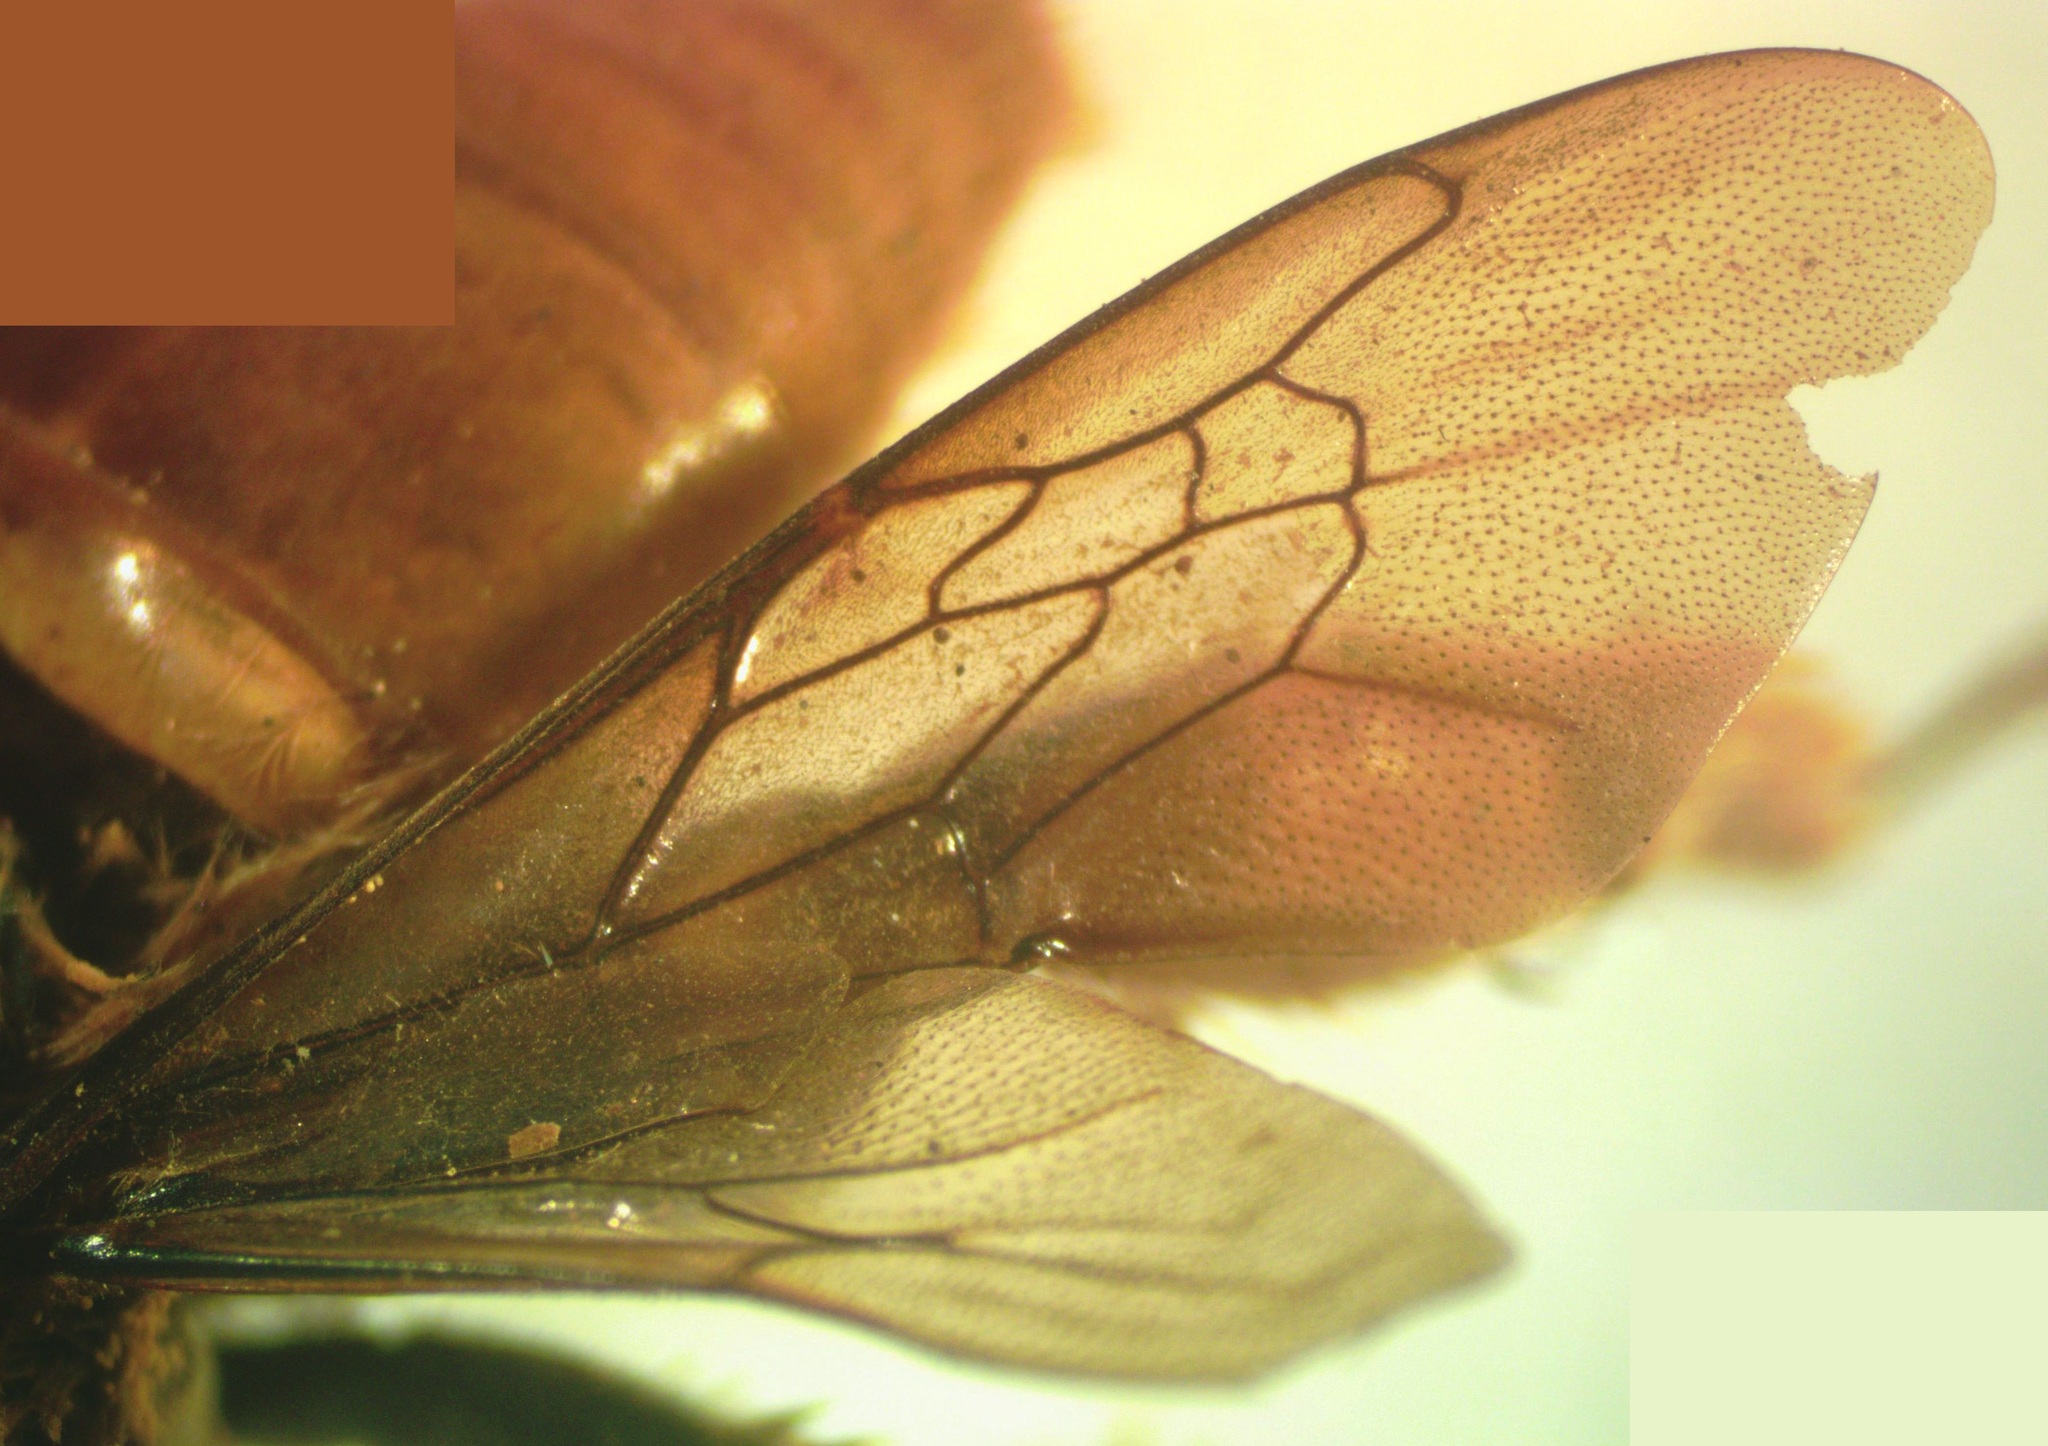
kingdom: Animalia
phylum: Arthropoda
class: Insecta
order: Hymenoptera
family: Apidae
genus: Epicharis
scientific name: Epicharis elegans
